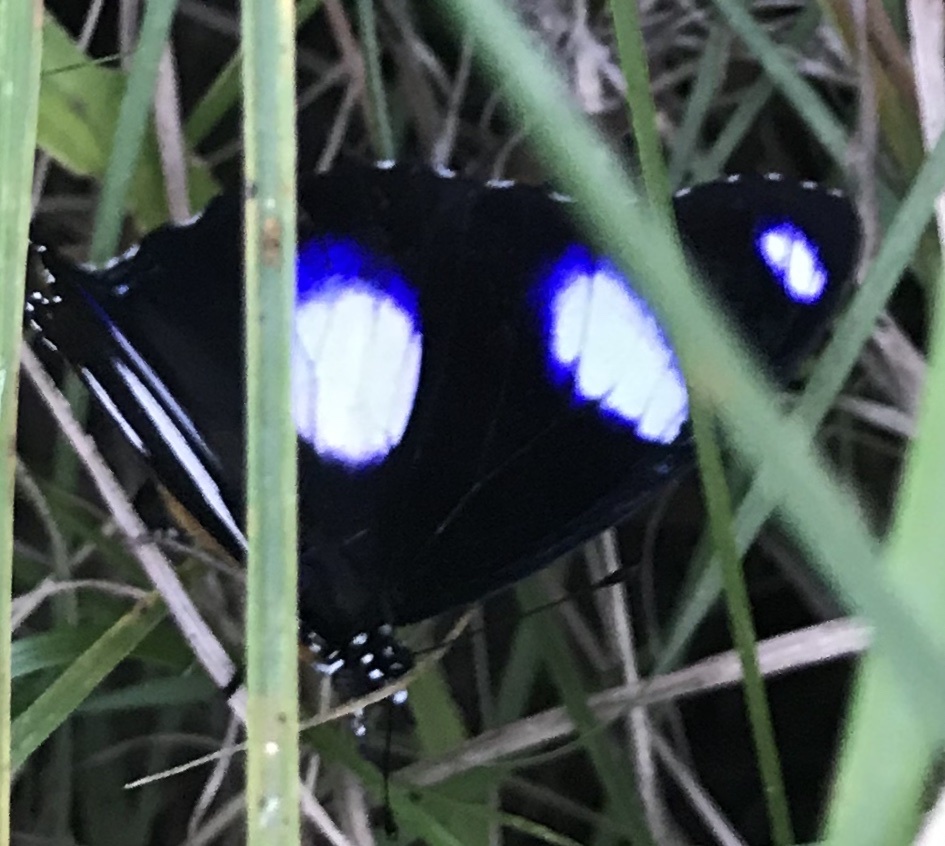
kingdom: Animalia
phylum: Arthropoda
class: Insecta
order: Lepidoptera
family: Nymphalidae
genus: Hypolimnas
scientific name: Hypolimnas misippus
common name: False plain tiger
